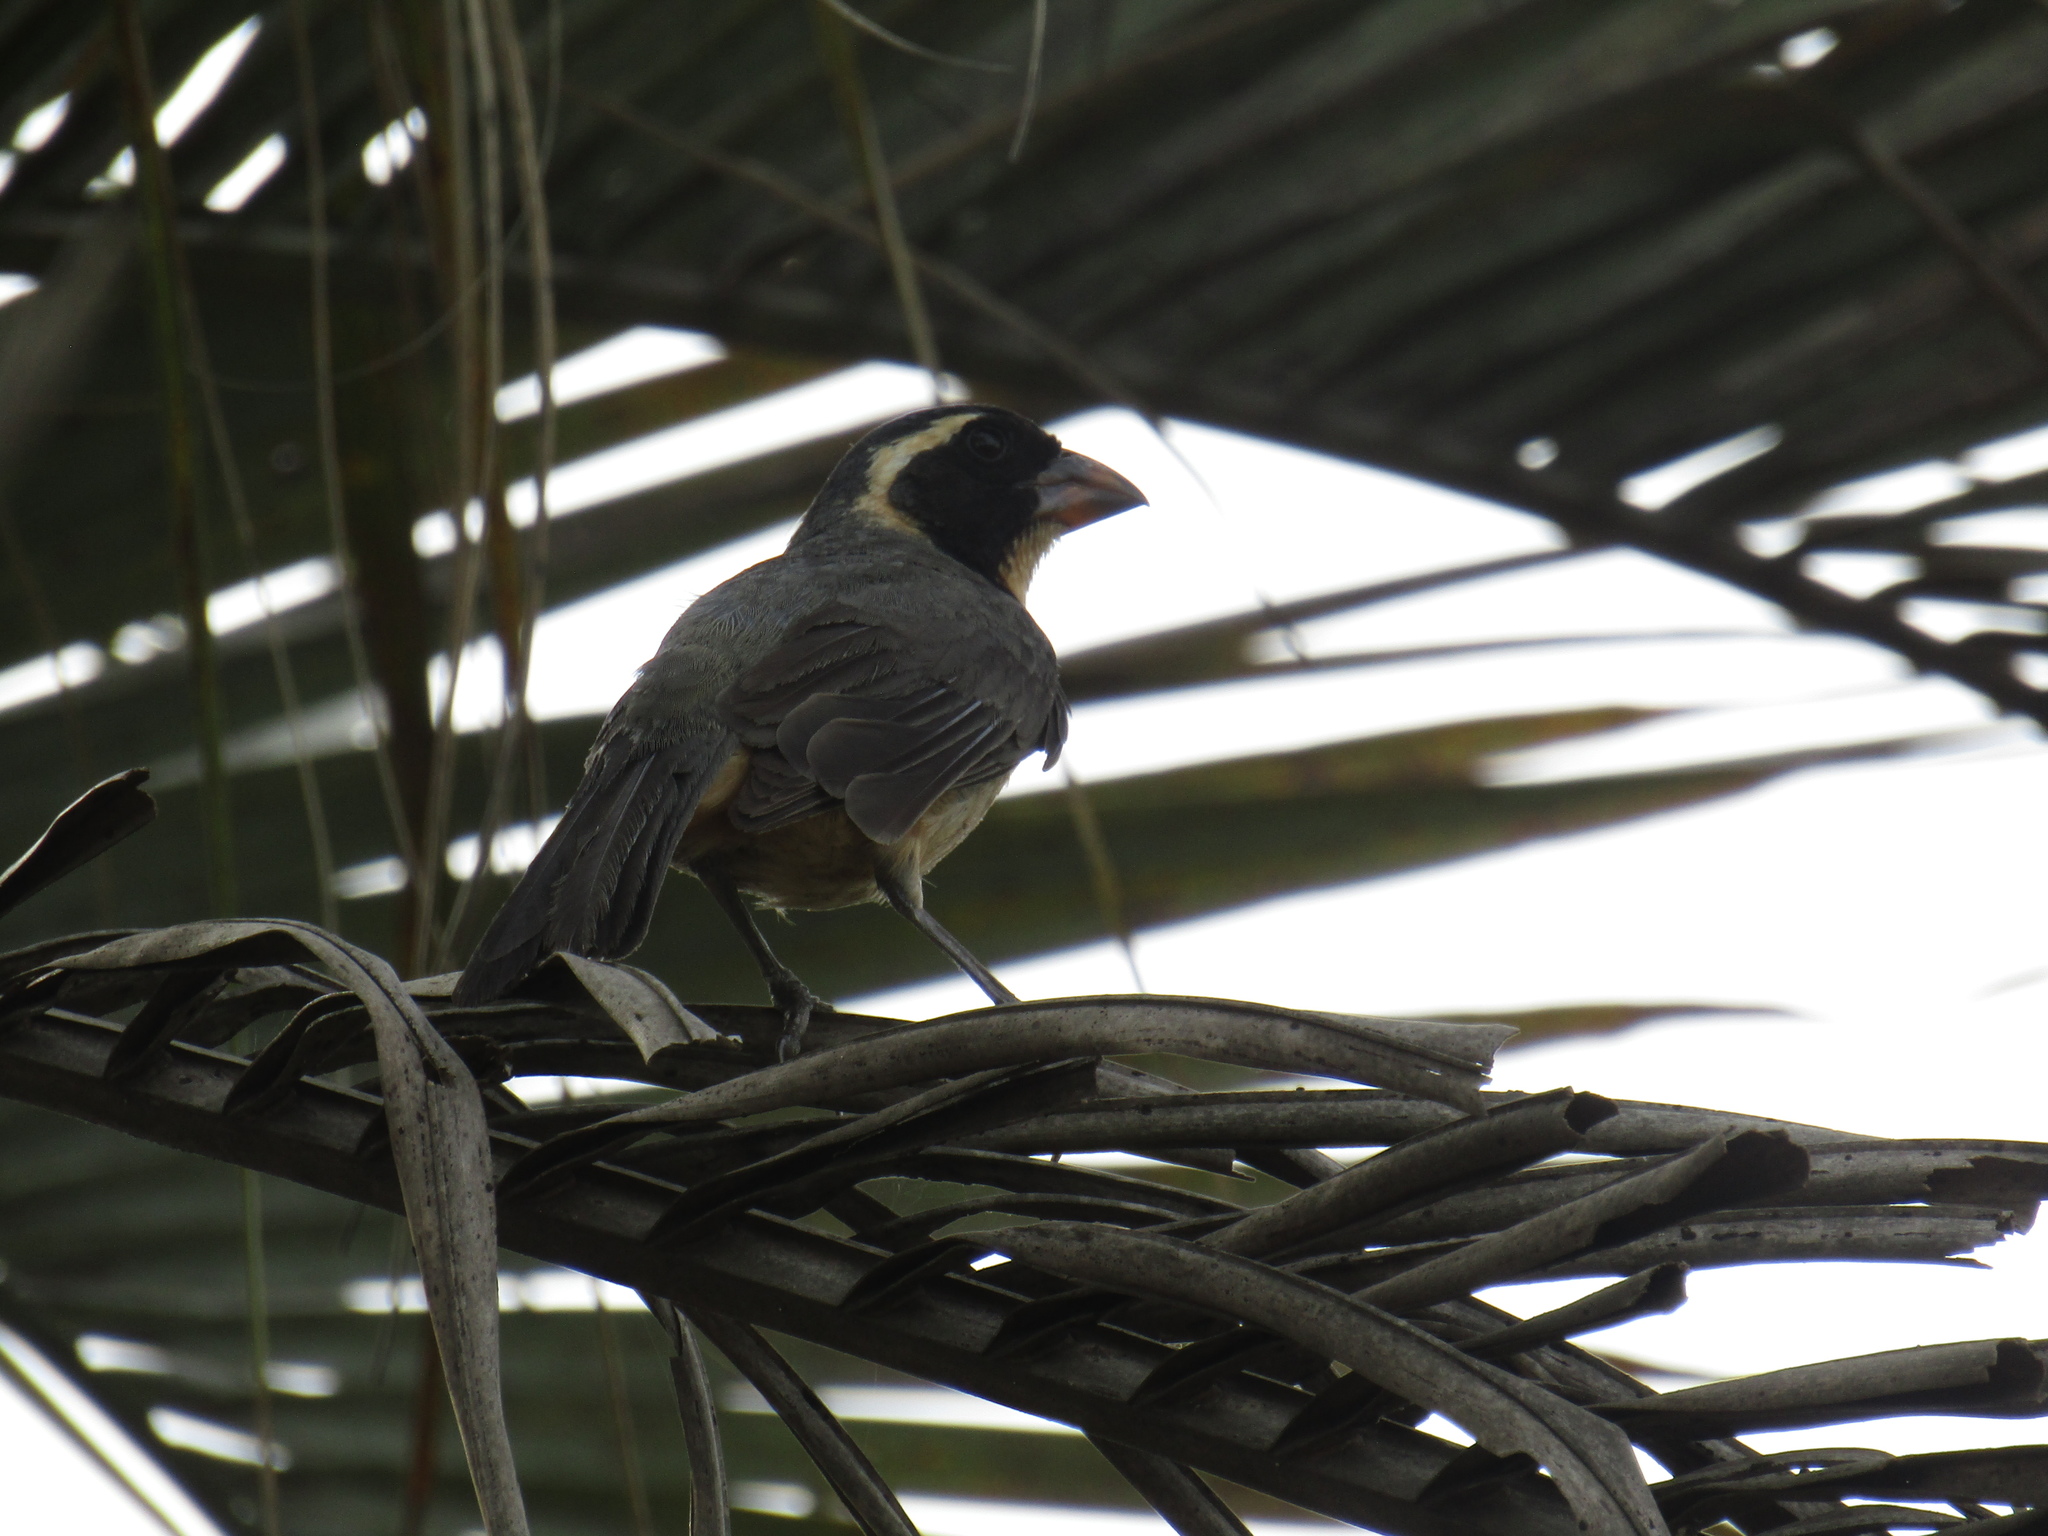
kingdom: Animalia
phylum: Chordata
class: Aves
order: Passeriformes
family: Thraupidae
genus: Saltator
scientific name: Saltator aurantiirostris
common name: Golden-billed saltator
